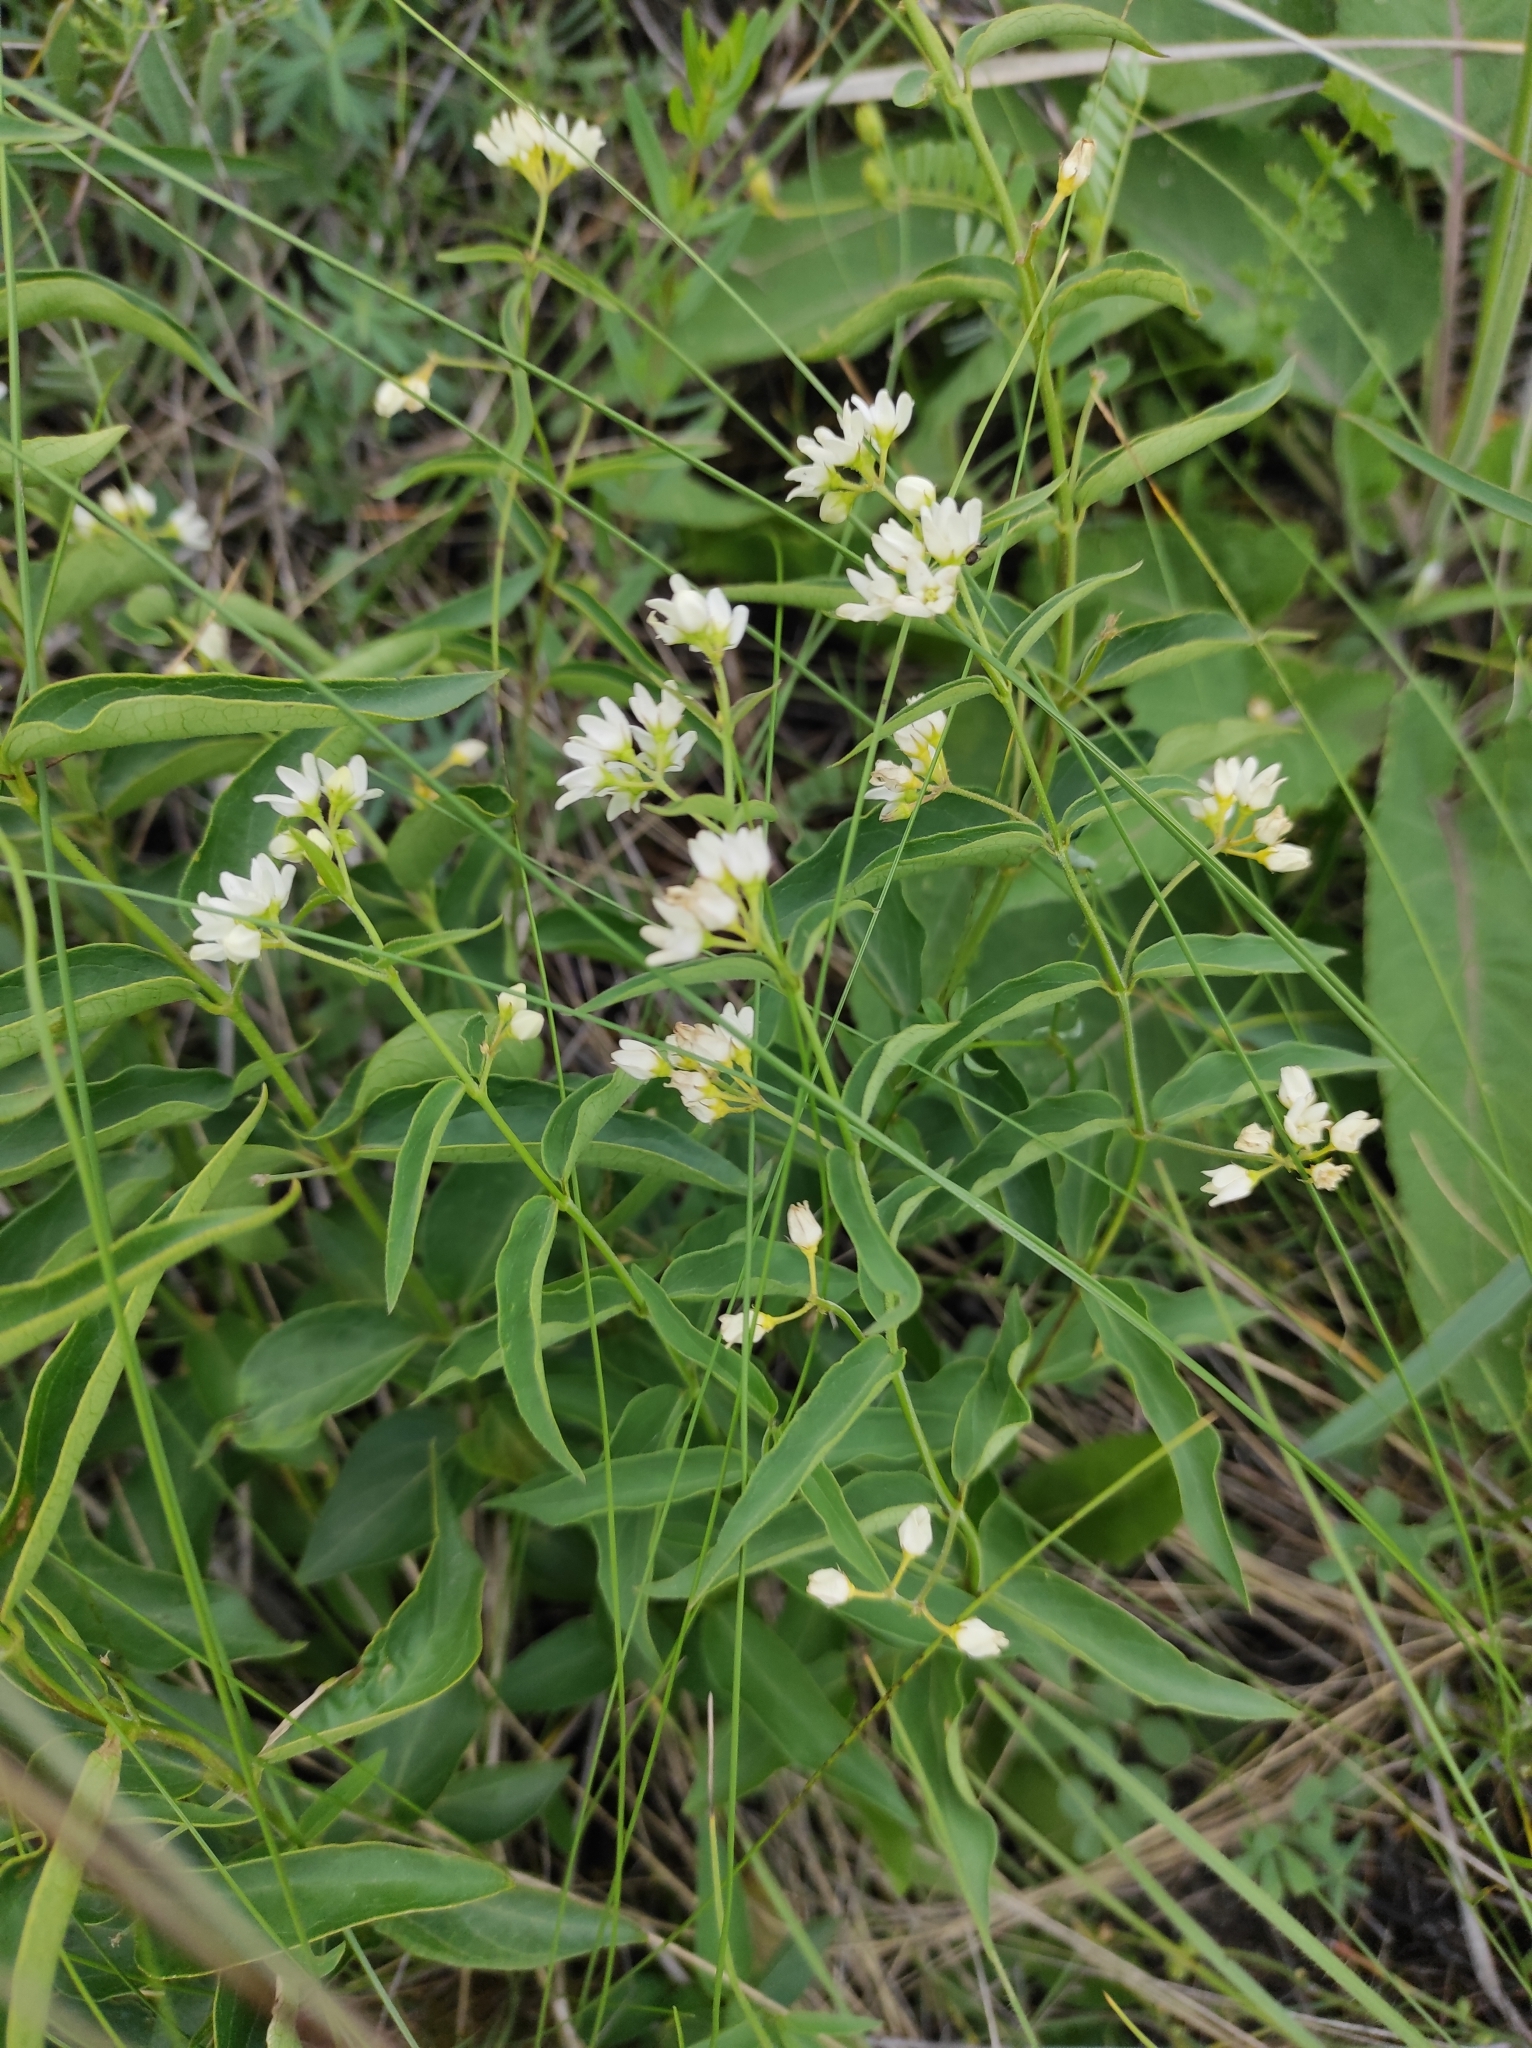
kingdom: Plantae
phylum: Tracheophyta
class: Magnoliopsida
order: Gentianales
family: Apocynaceae
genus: Vincetoxicum
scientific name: Vincetoxicum hirundinaria
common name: White swallowwort
